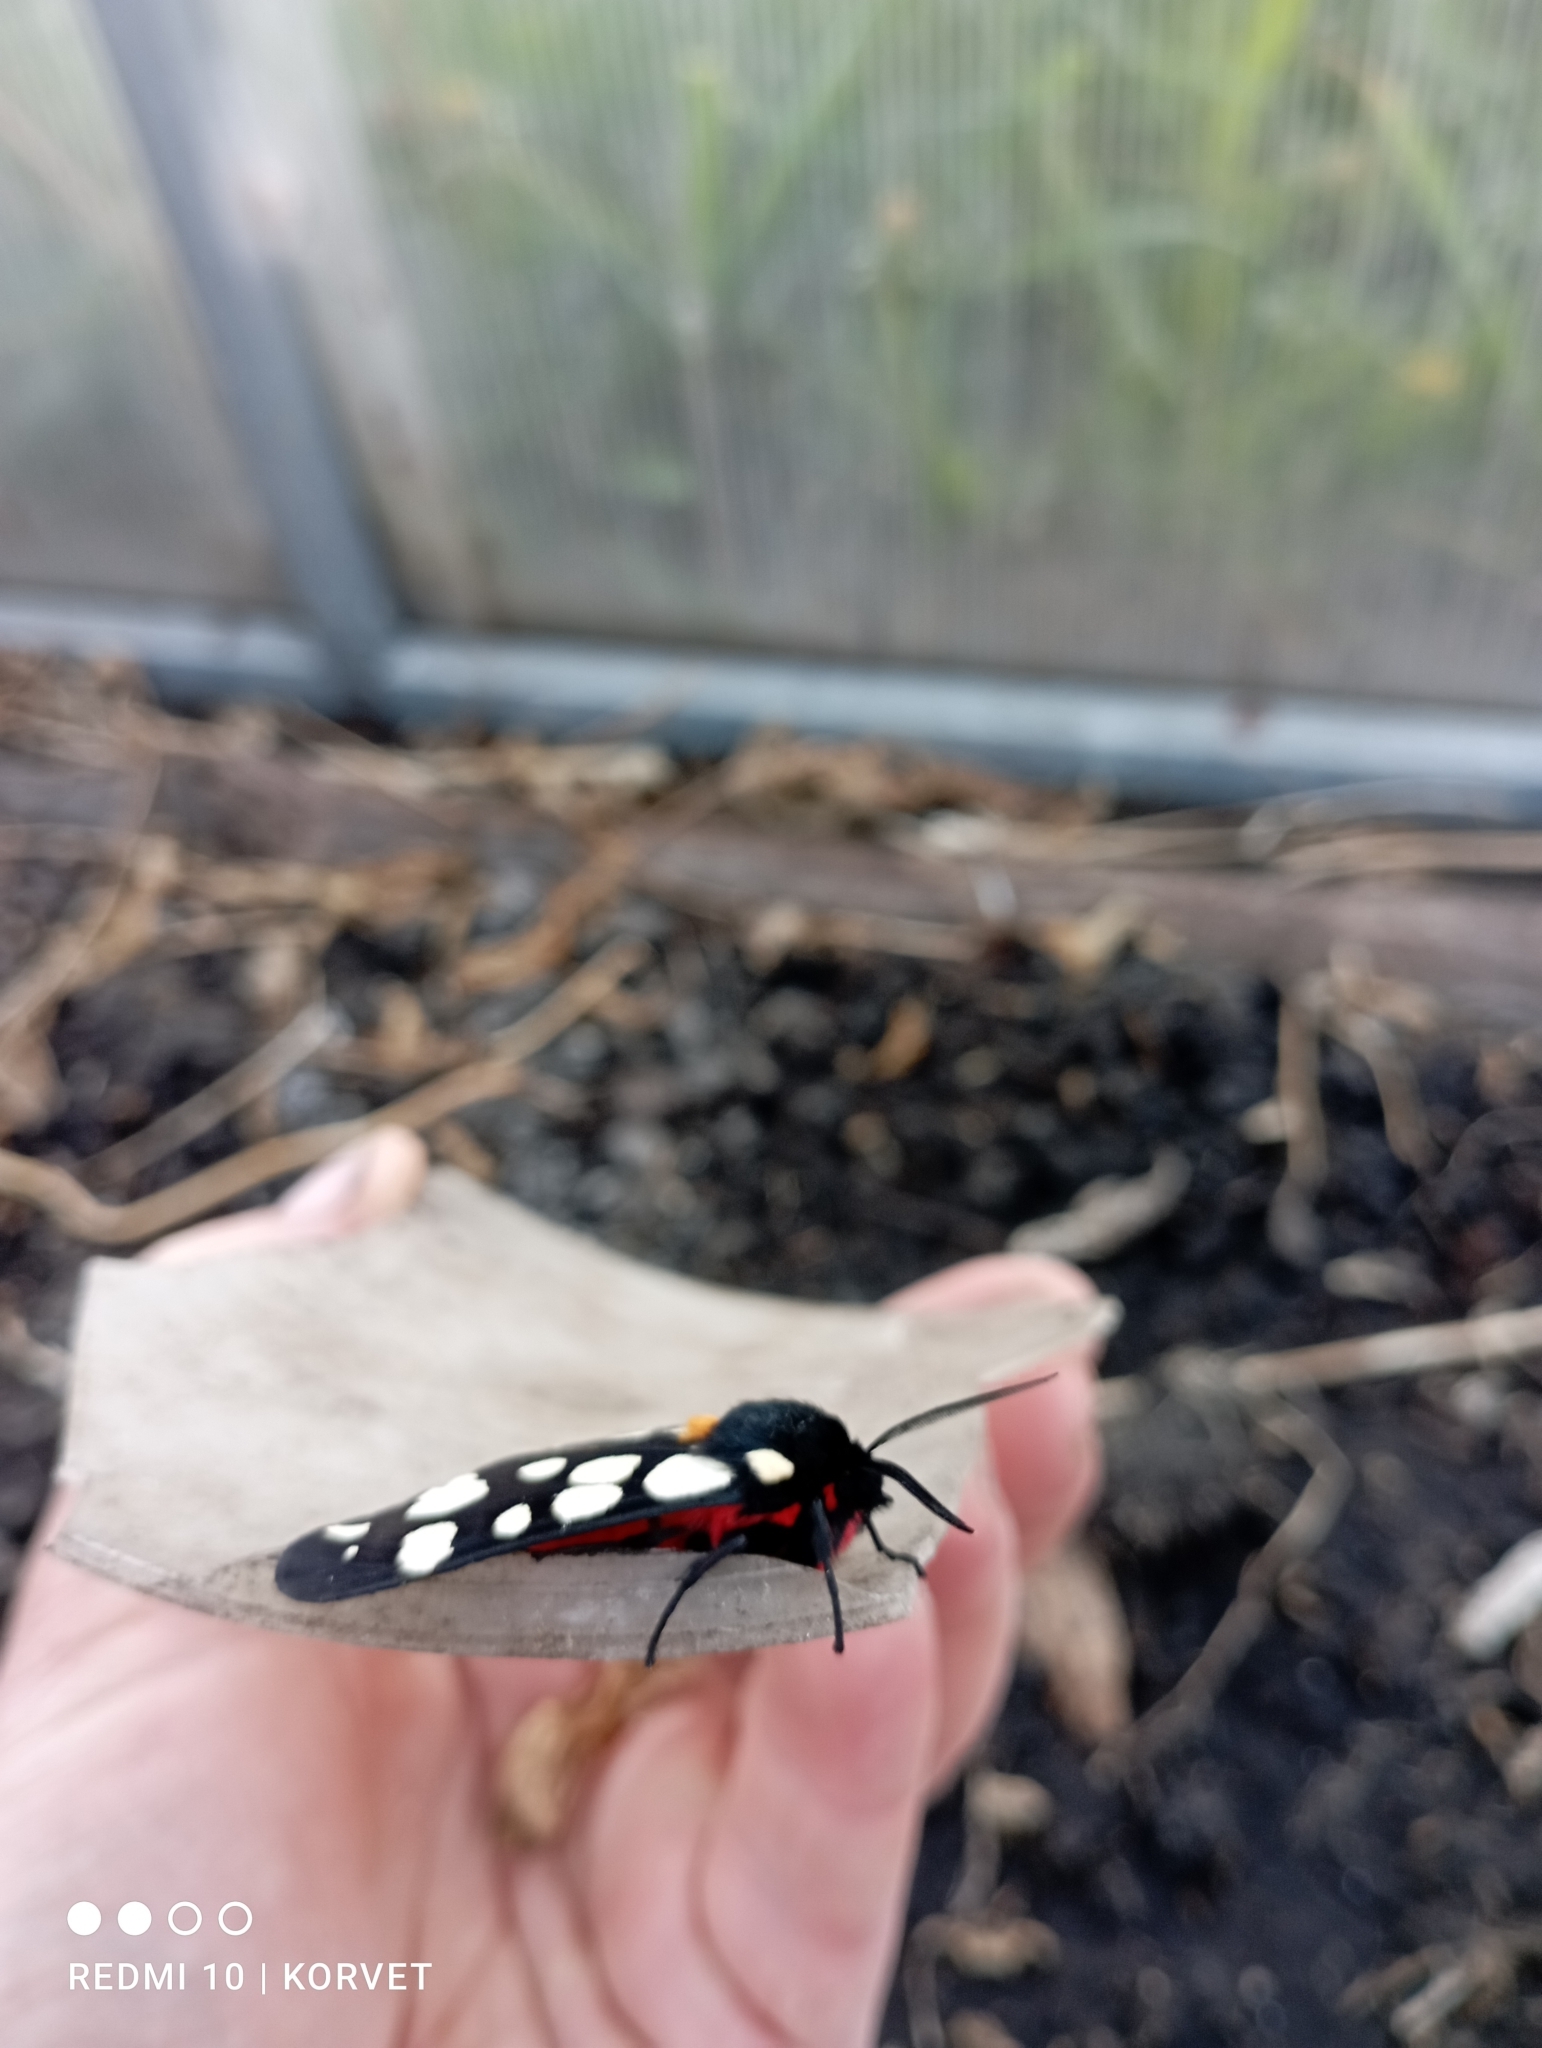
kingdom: Animalia
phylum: Arthropoda
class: Insecta
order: Lepidoptera
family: Erebidae
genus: Epicallia
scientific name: Epicallia villica
